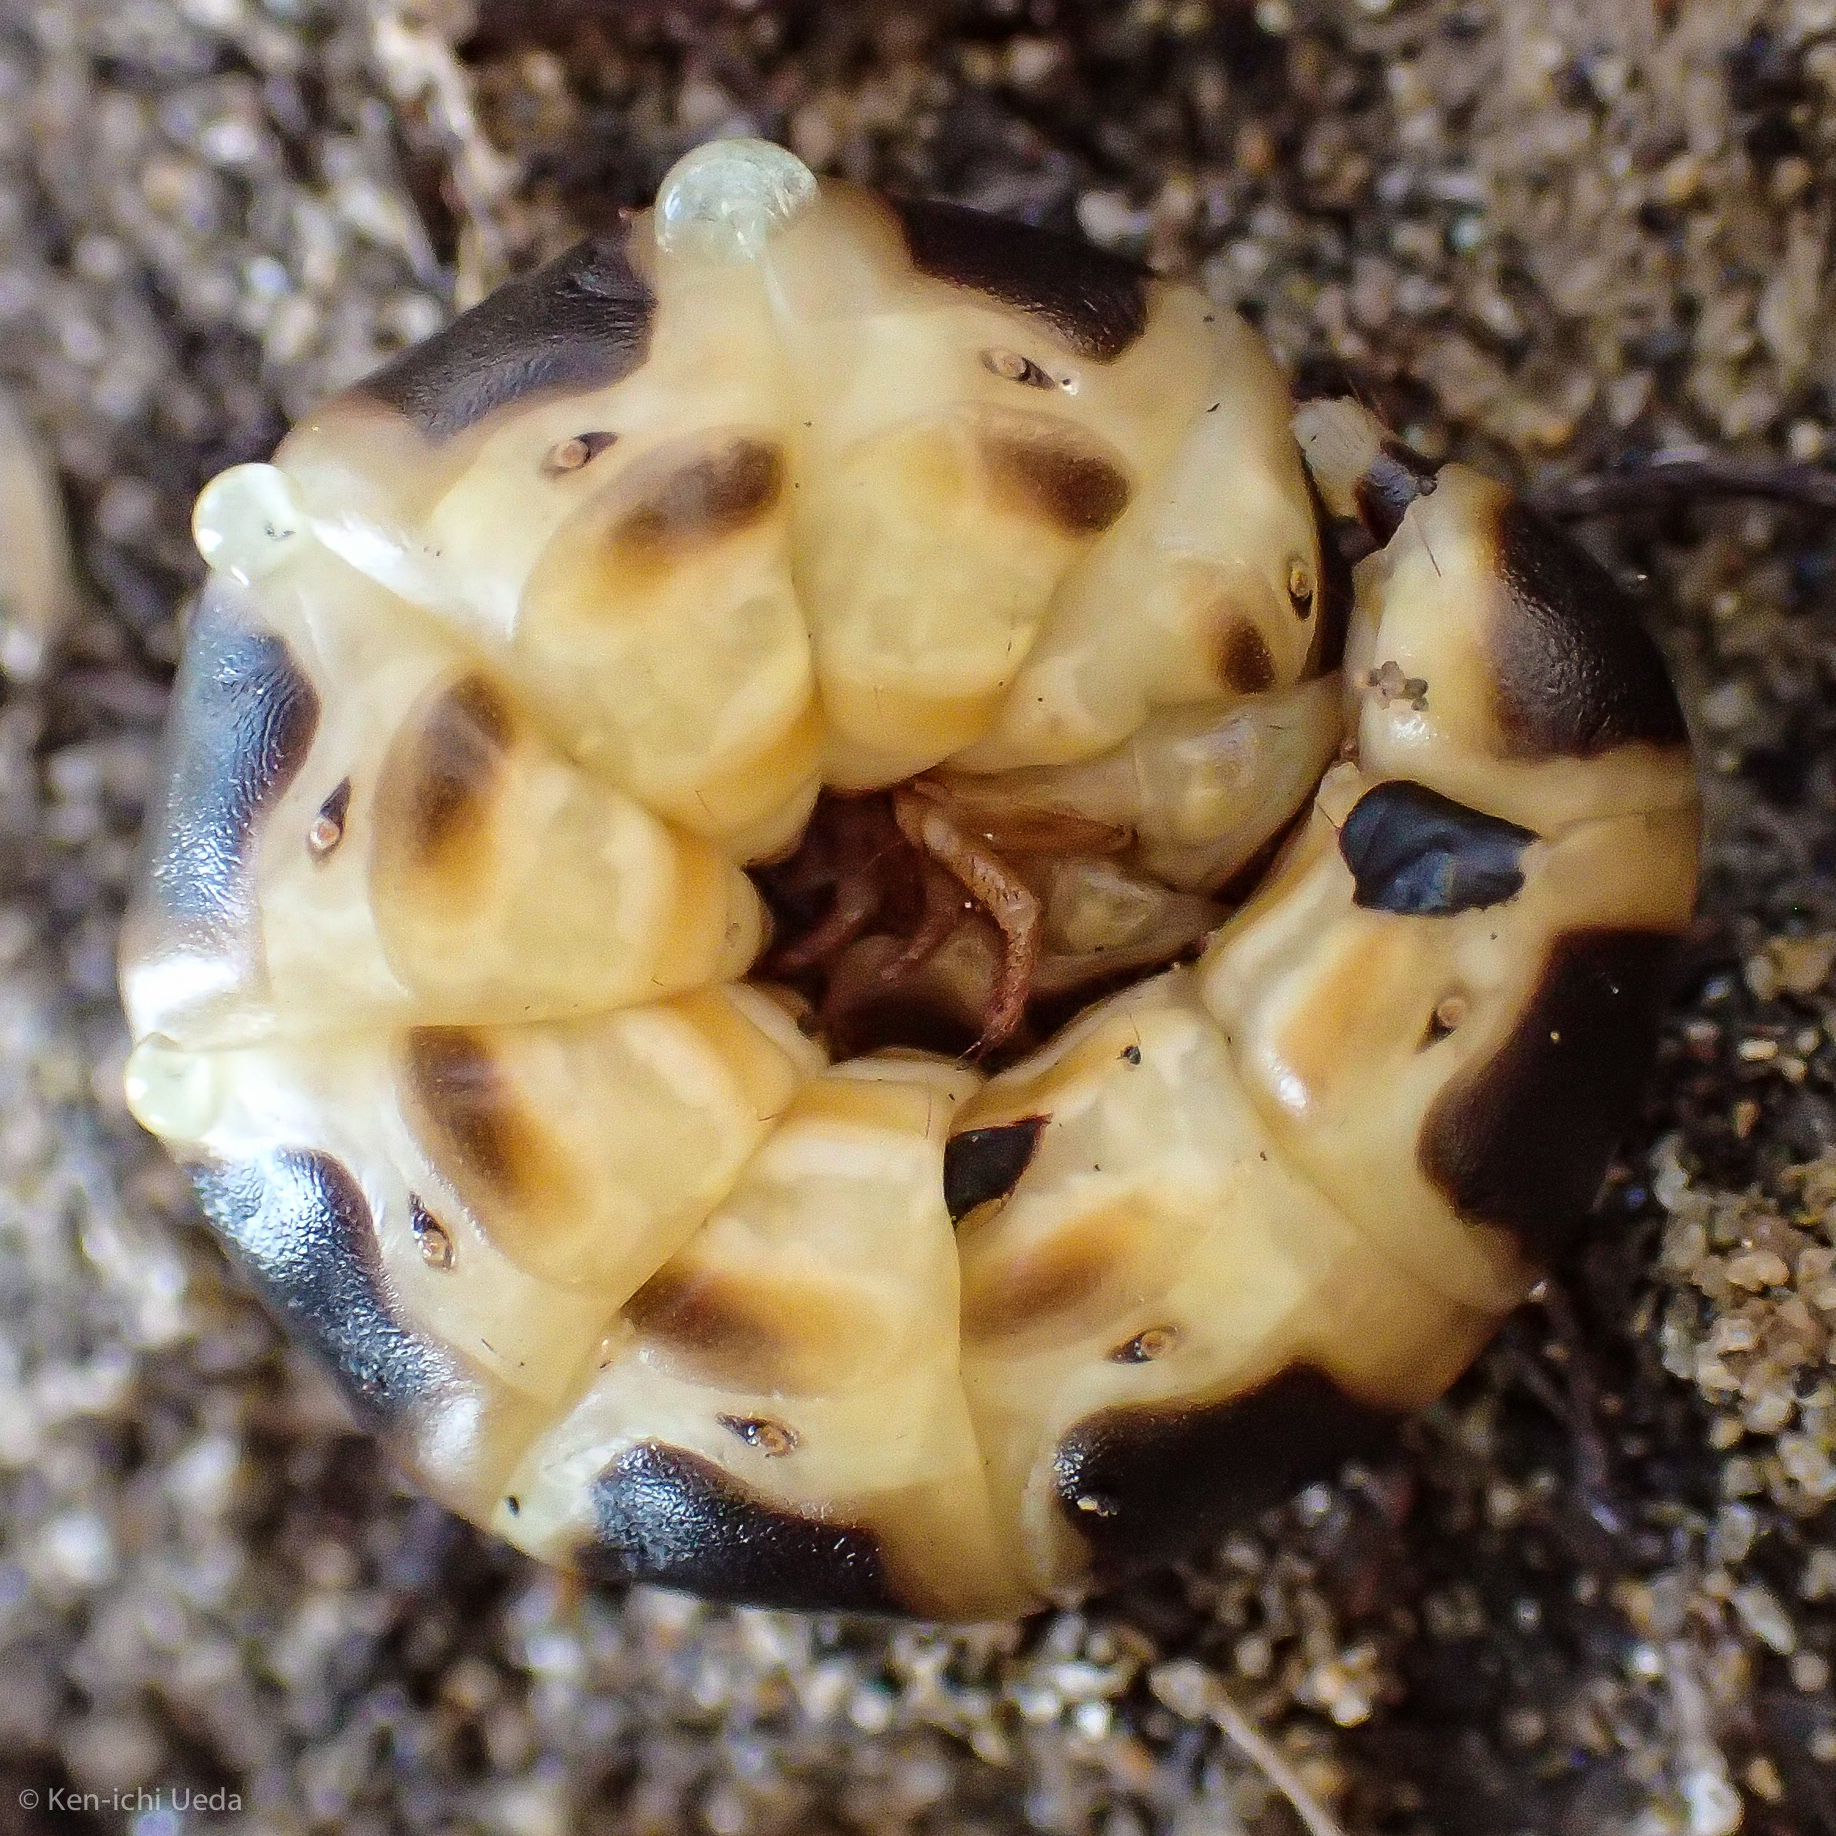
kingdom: Animalia
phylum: Arthropoda
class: Insecta
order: Coleoptera
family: Phengodidae
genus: Zarhipis
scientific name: Zarhipis integripennis
